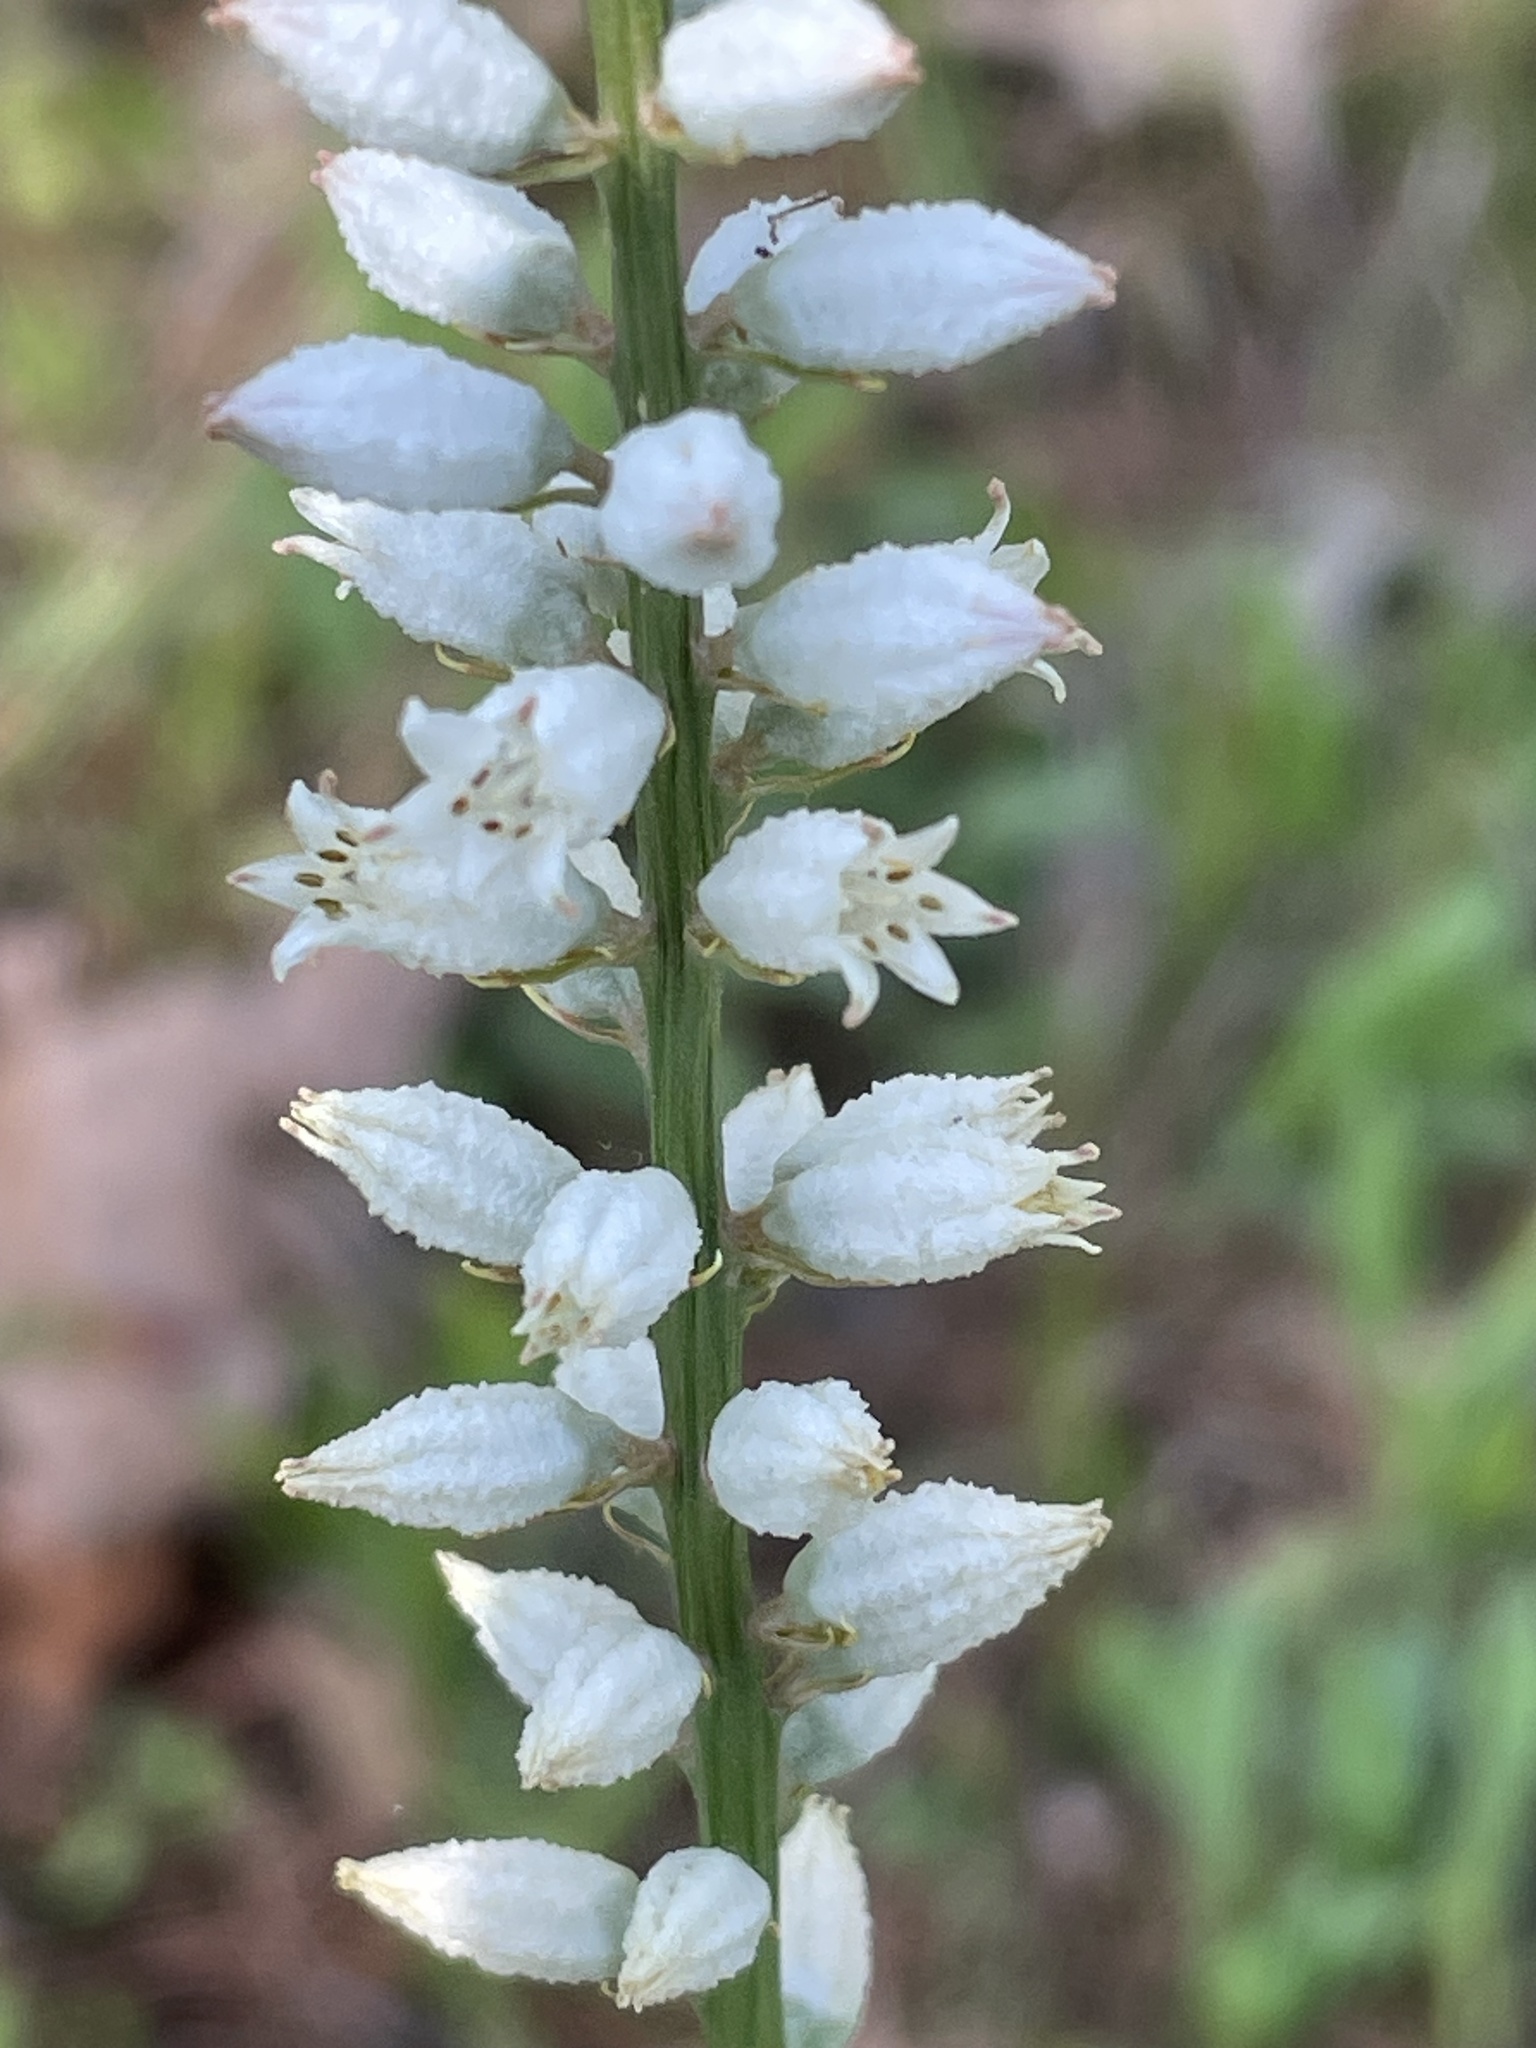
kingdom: Plantae
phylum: Tracheophyta
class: Liliopsida
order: Dioscoreales
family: Nartheciaceae
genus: Aletris
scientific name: Aletris farinosa
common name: Colicroot
